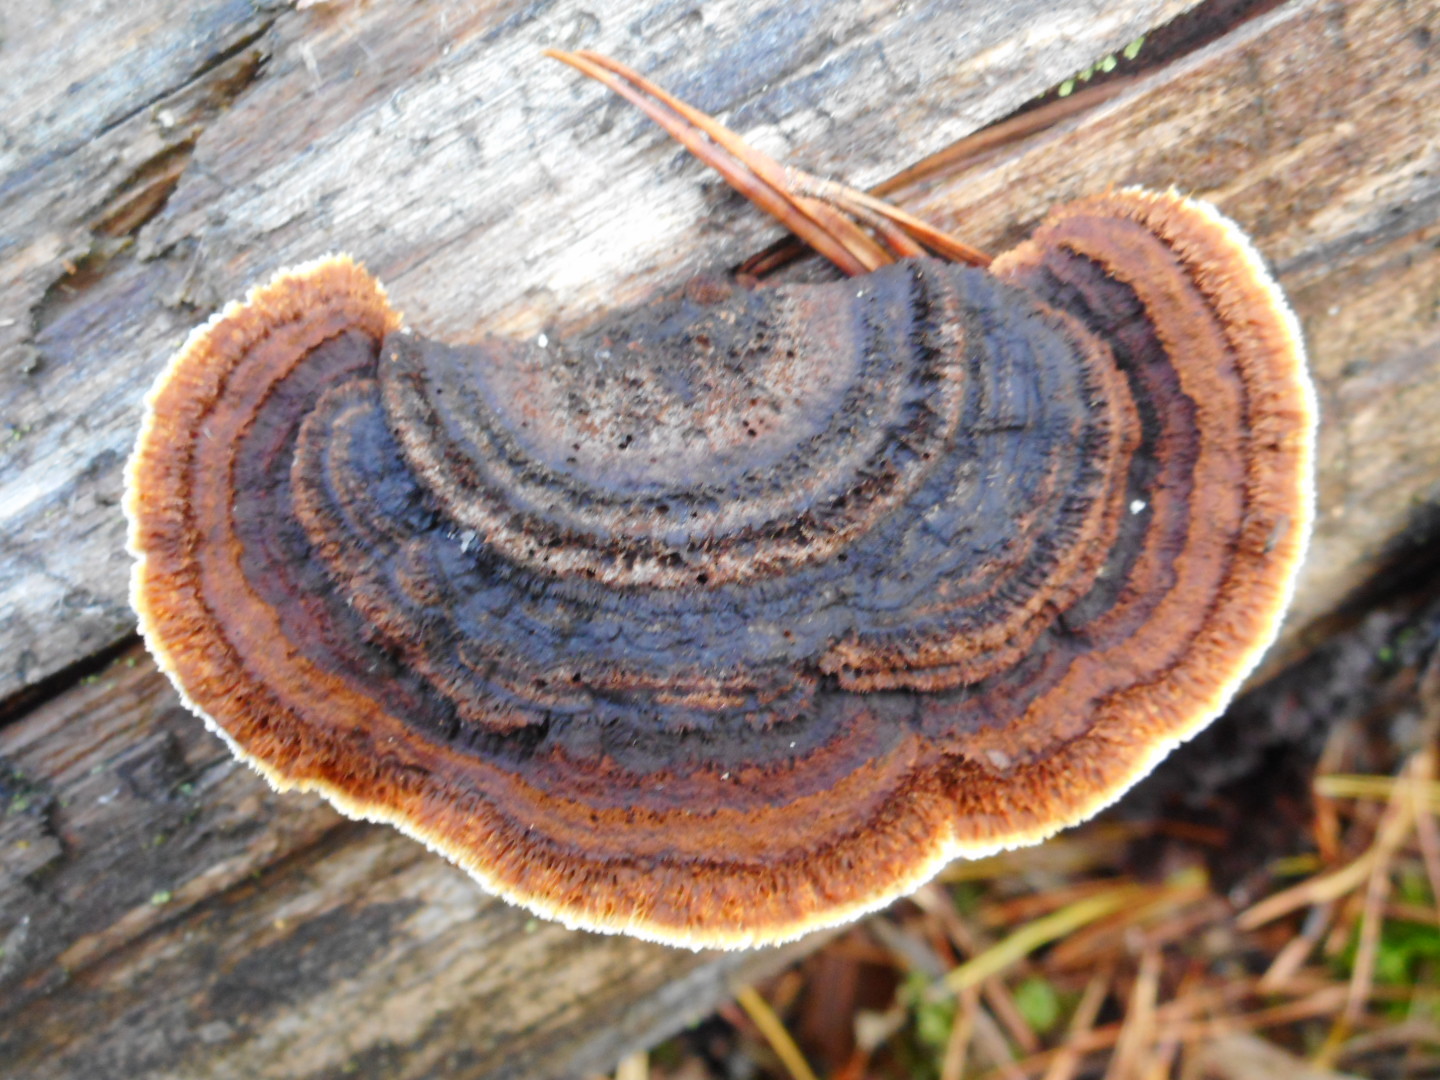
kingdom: Fungi
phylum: Basidiomycota
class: Agaricomycetes
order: Gloeophyllales
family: Gloeophyllaceae
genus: Gloeophyllum
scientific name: Gloeophyllum sepiarium
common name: Conifer mazegill
